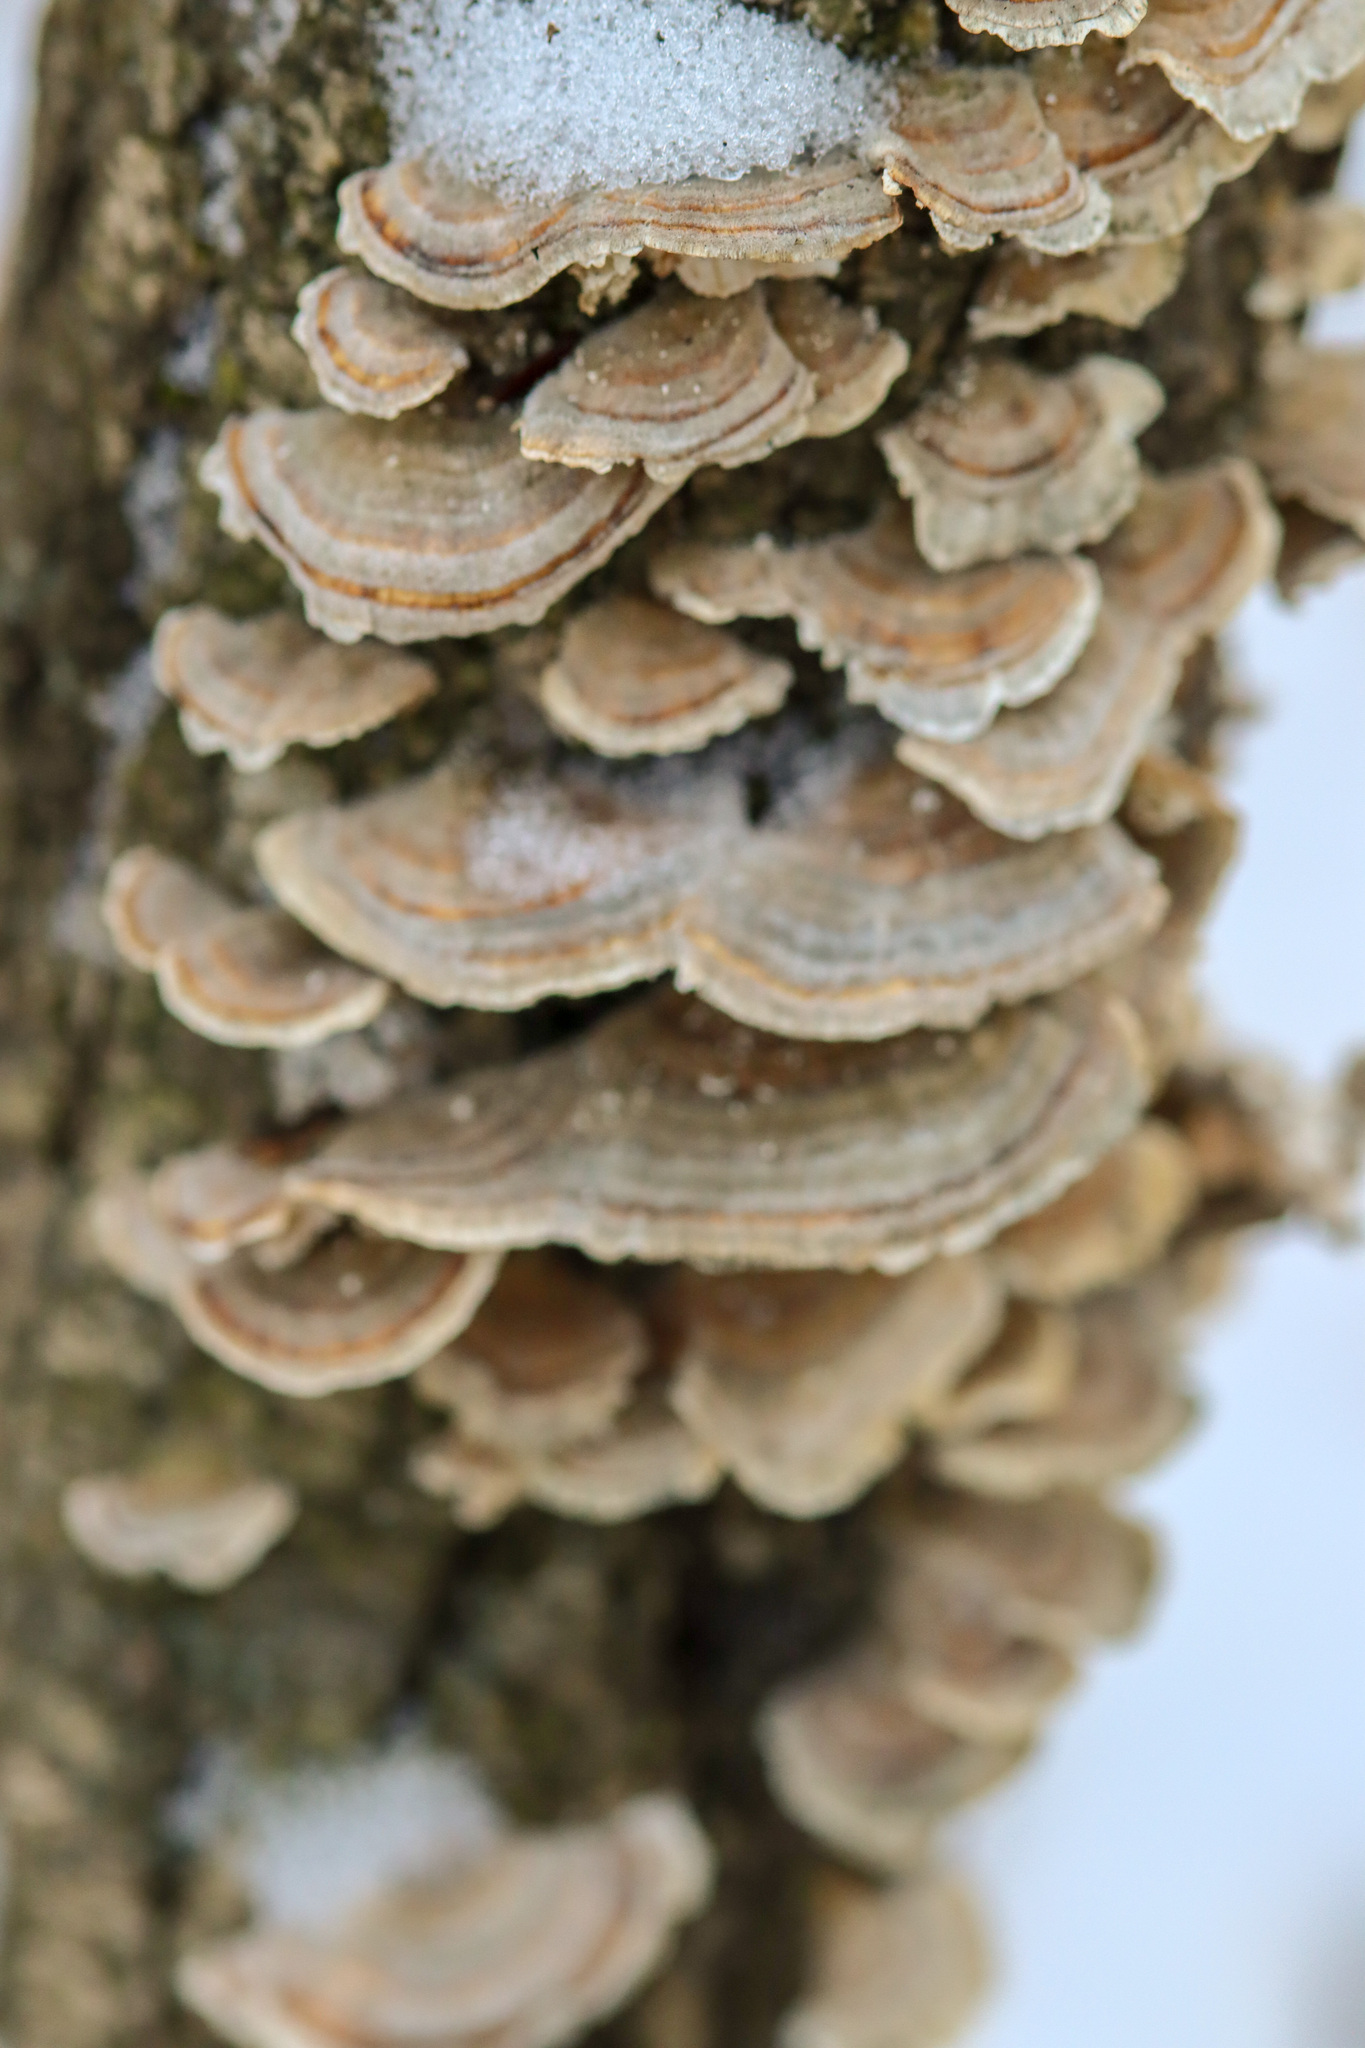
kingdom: Fungi
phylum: Basidiomycota
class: Agaricomycetes
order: Polyporales
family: Polyporaceae
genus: Trametes
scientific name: Trametes versicolor
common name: Turkeytail
